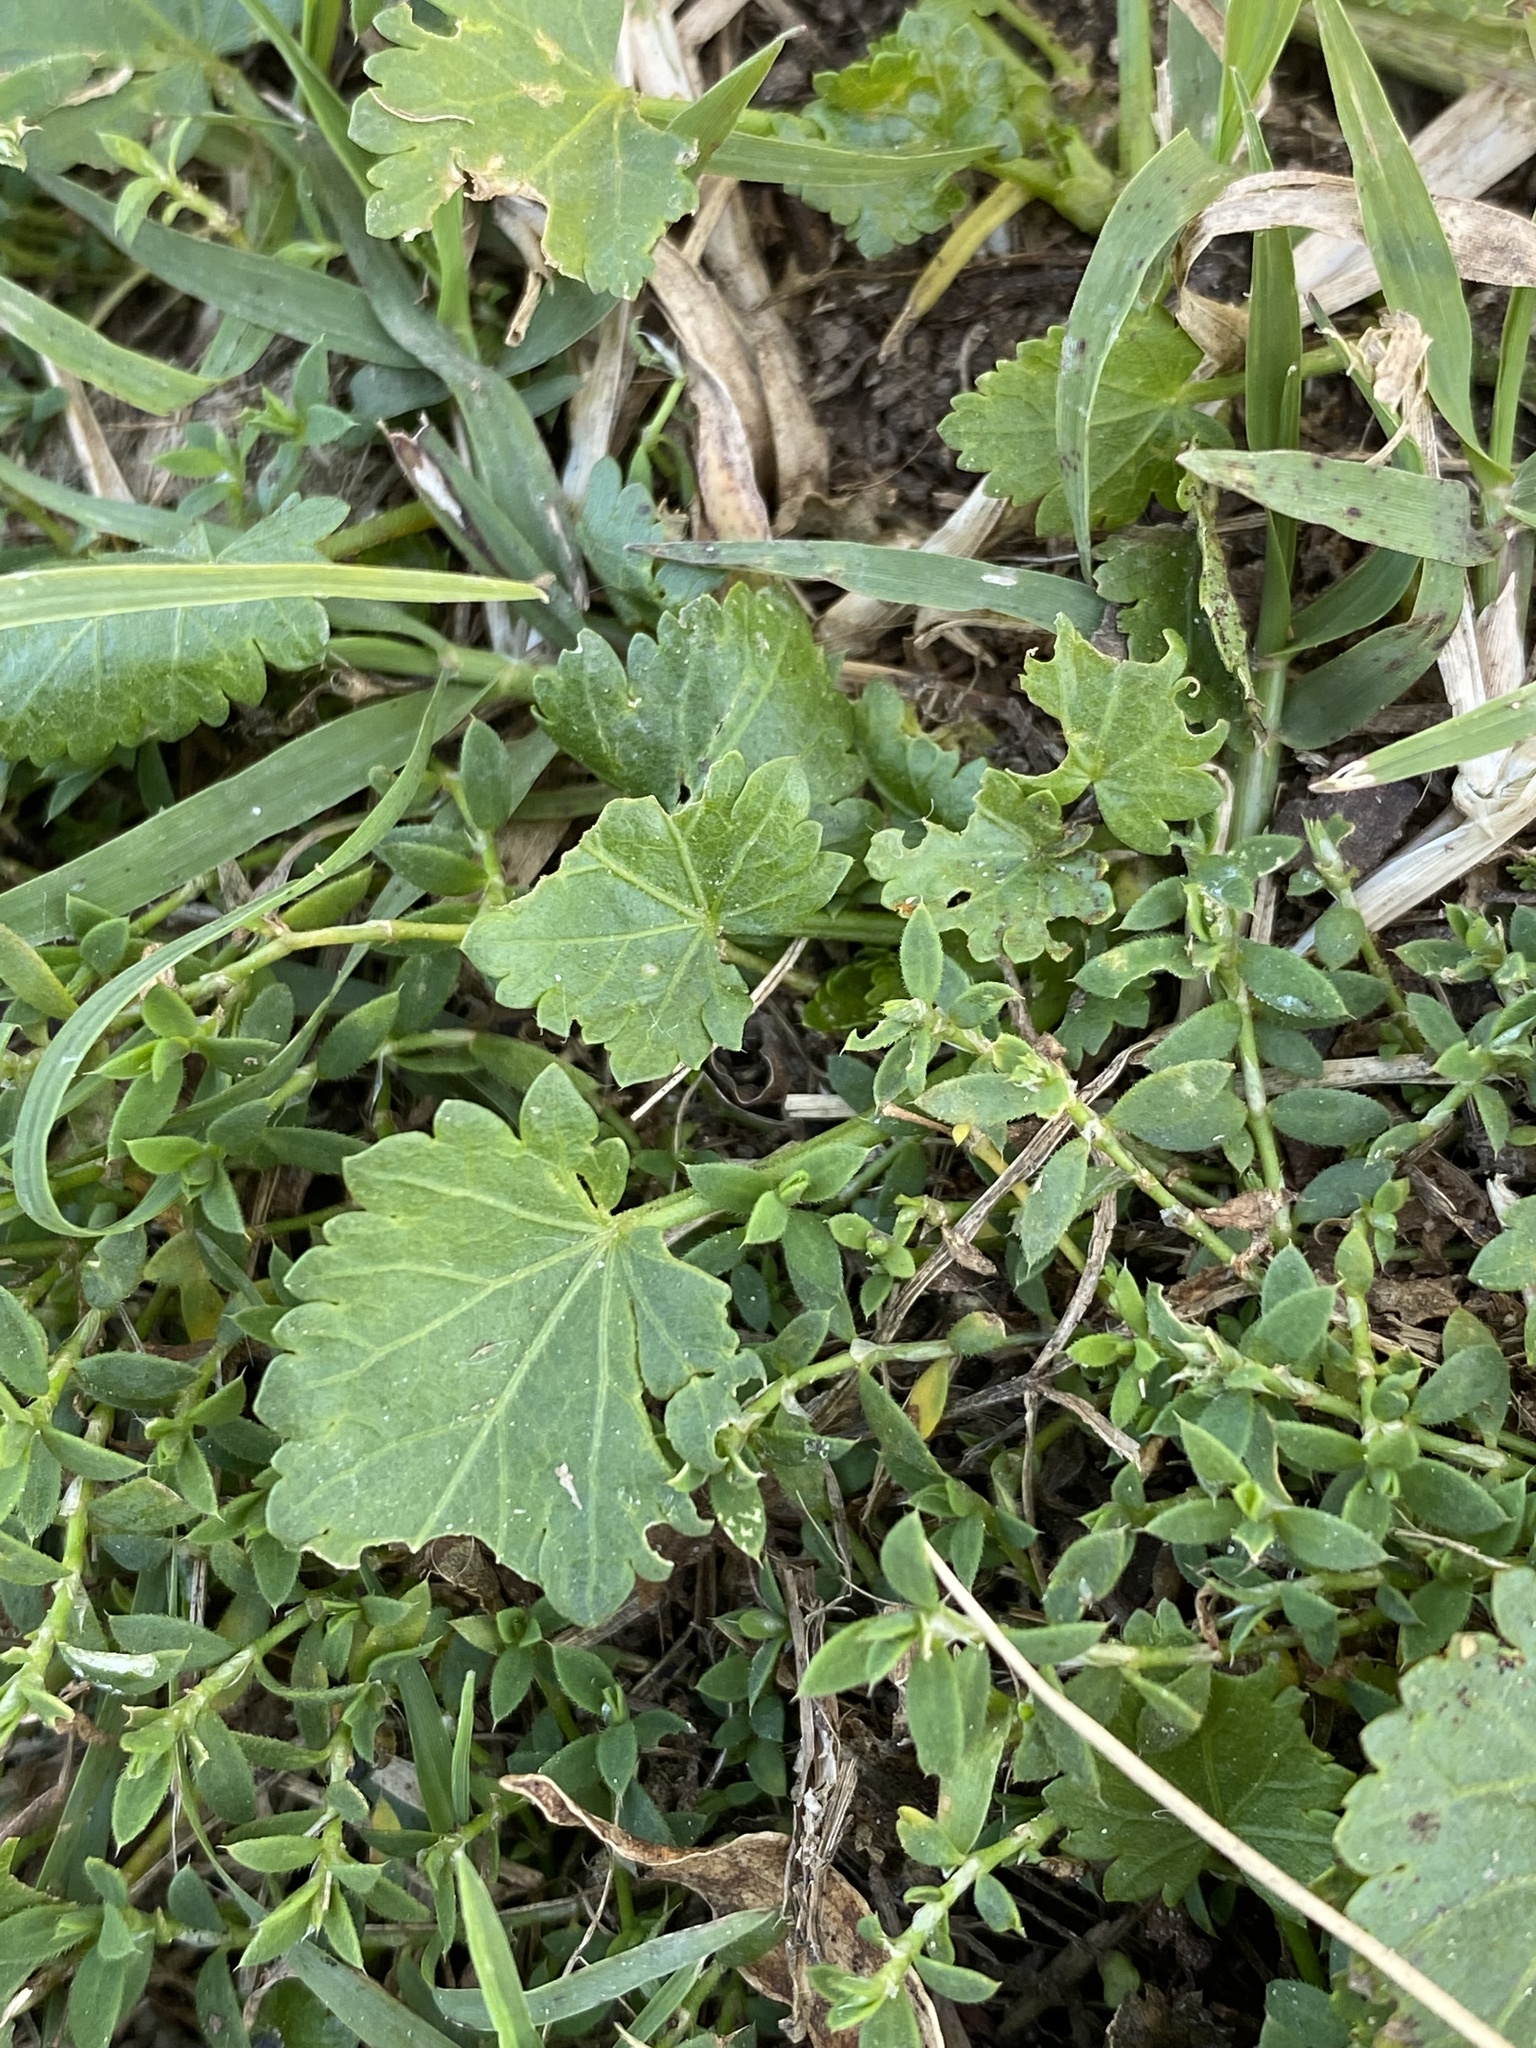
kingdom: Plantae
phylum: Tracheophyta
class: Magnoliopsida
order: Malvales
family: Malvaceae
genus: Modiola
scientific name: Modiola caroliniana
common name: Carolina bristlemallow
